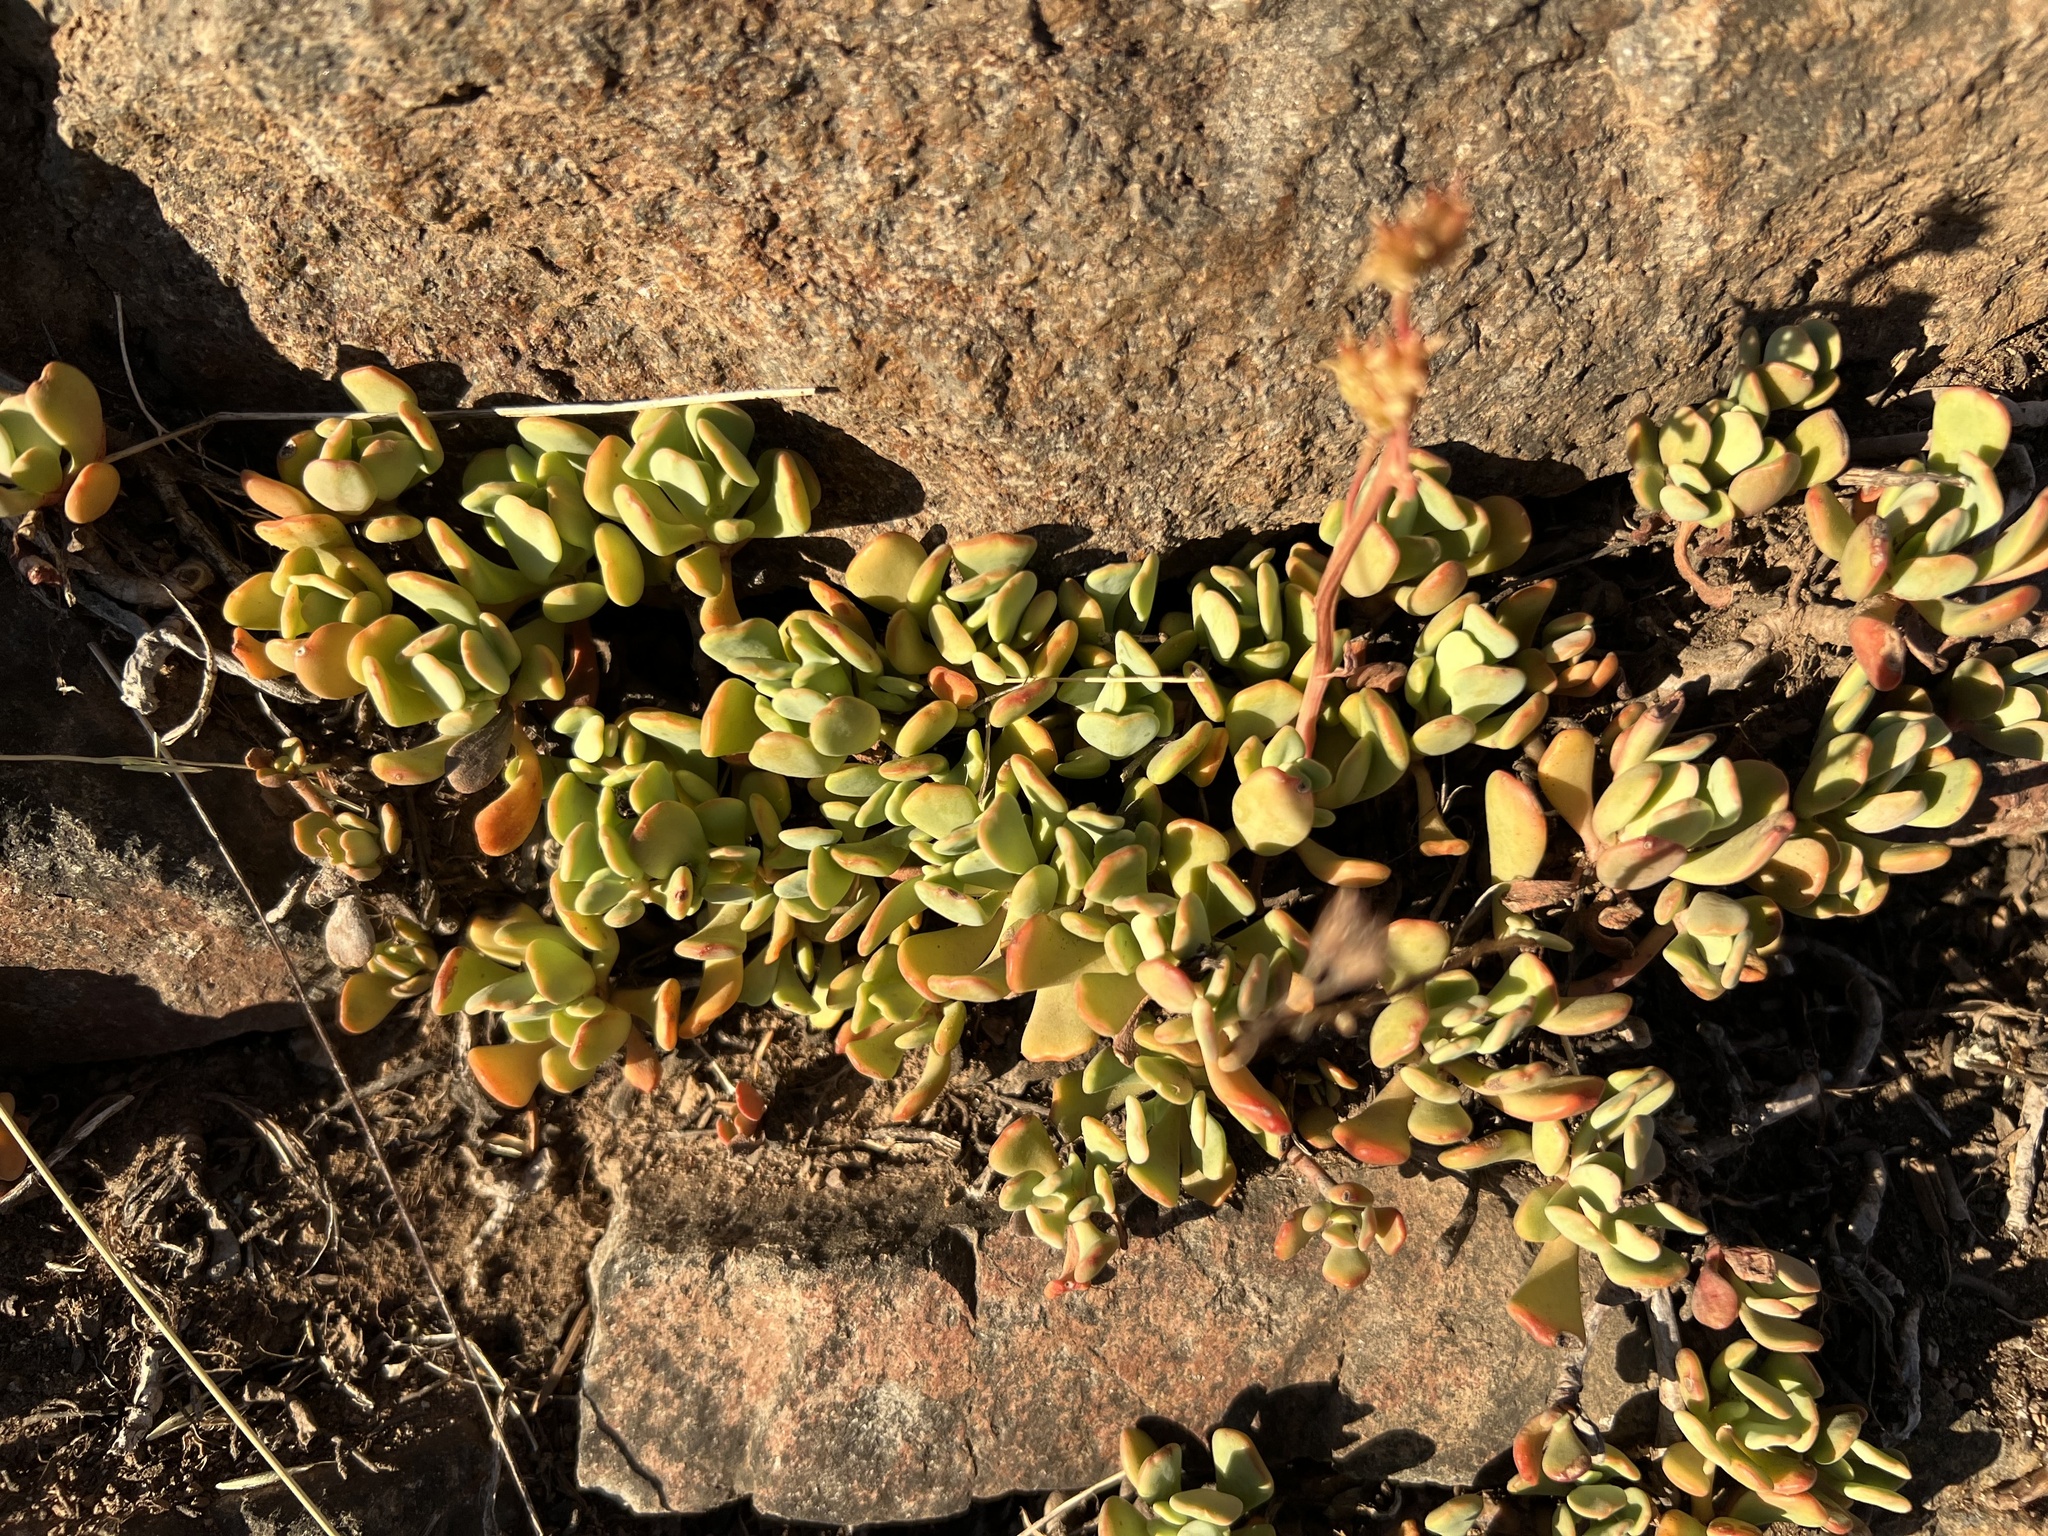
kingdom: Plantae
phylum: Tracheophyta
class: Magnoliopsida
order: Saxifragales
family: Crassulaceae
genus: Sedum
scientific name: Sedum oregonense
